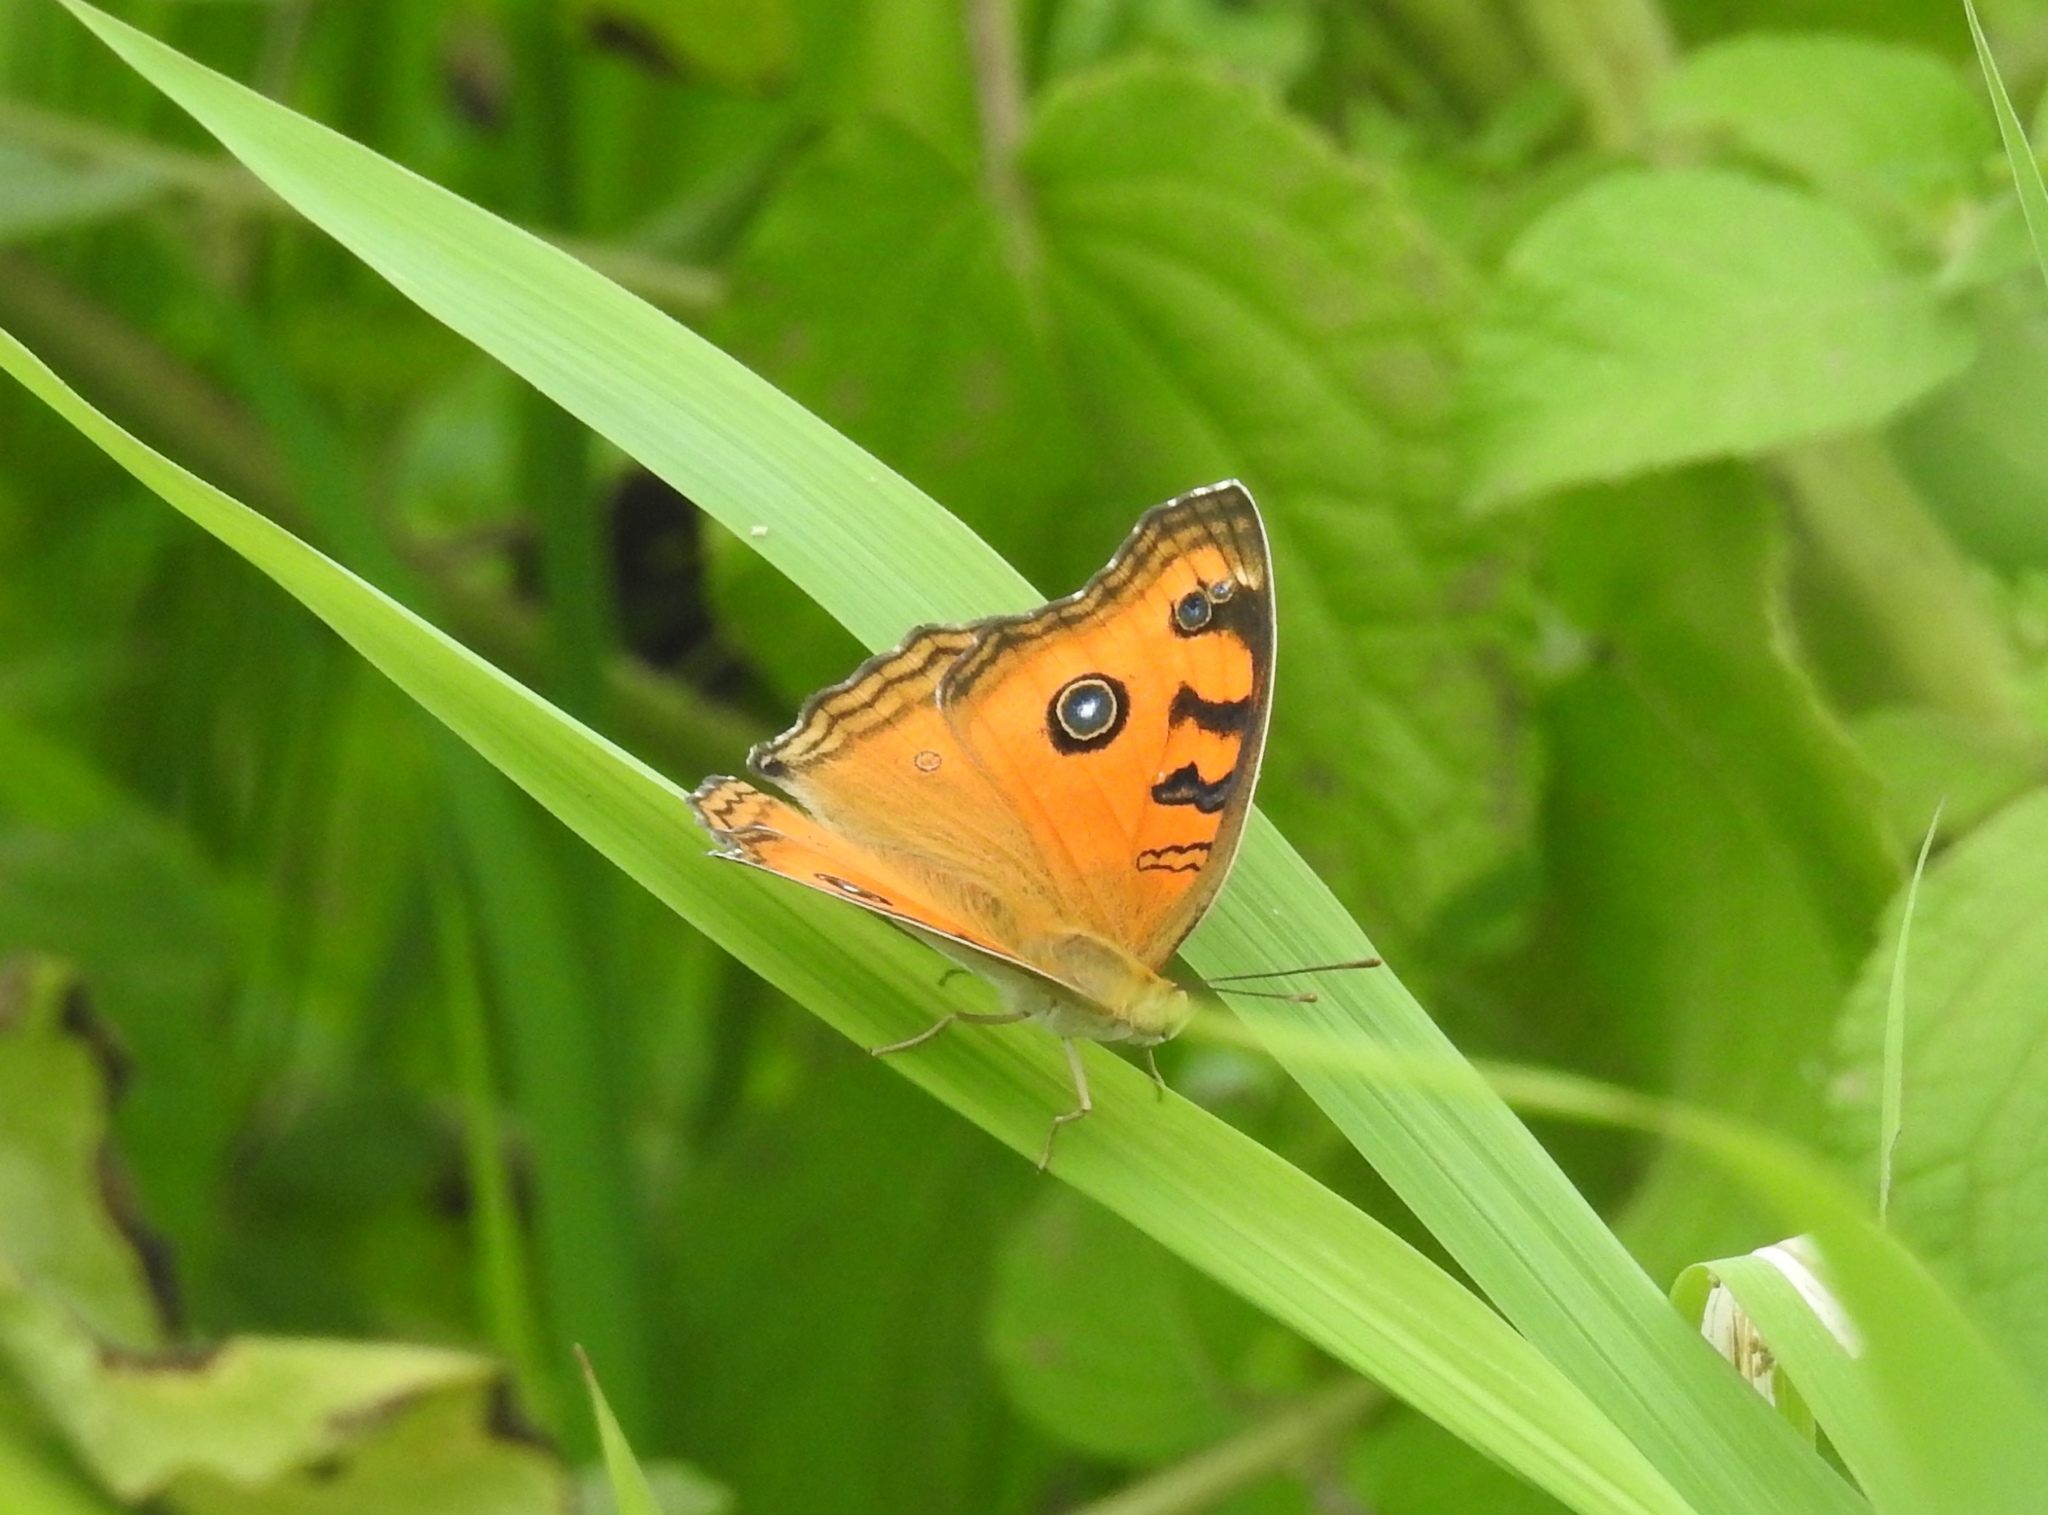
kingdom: Animalia
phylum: Arthropoda
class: Insecta
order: Lepidoptera
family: Nymphalidae
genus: Junonia
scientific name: Junonia almana
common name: Peacock pansy
